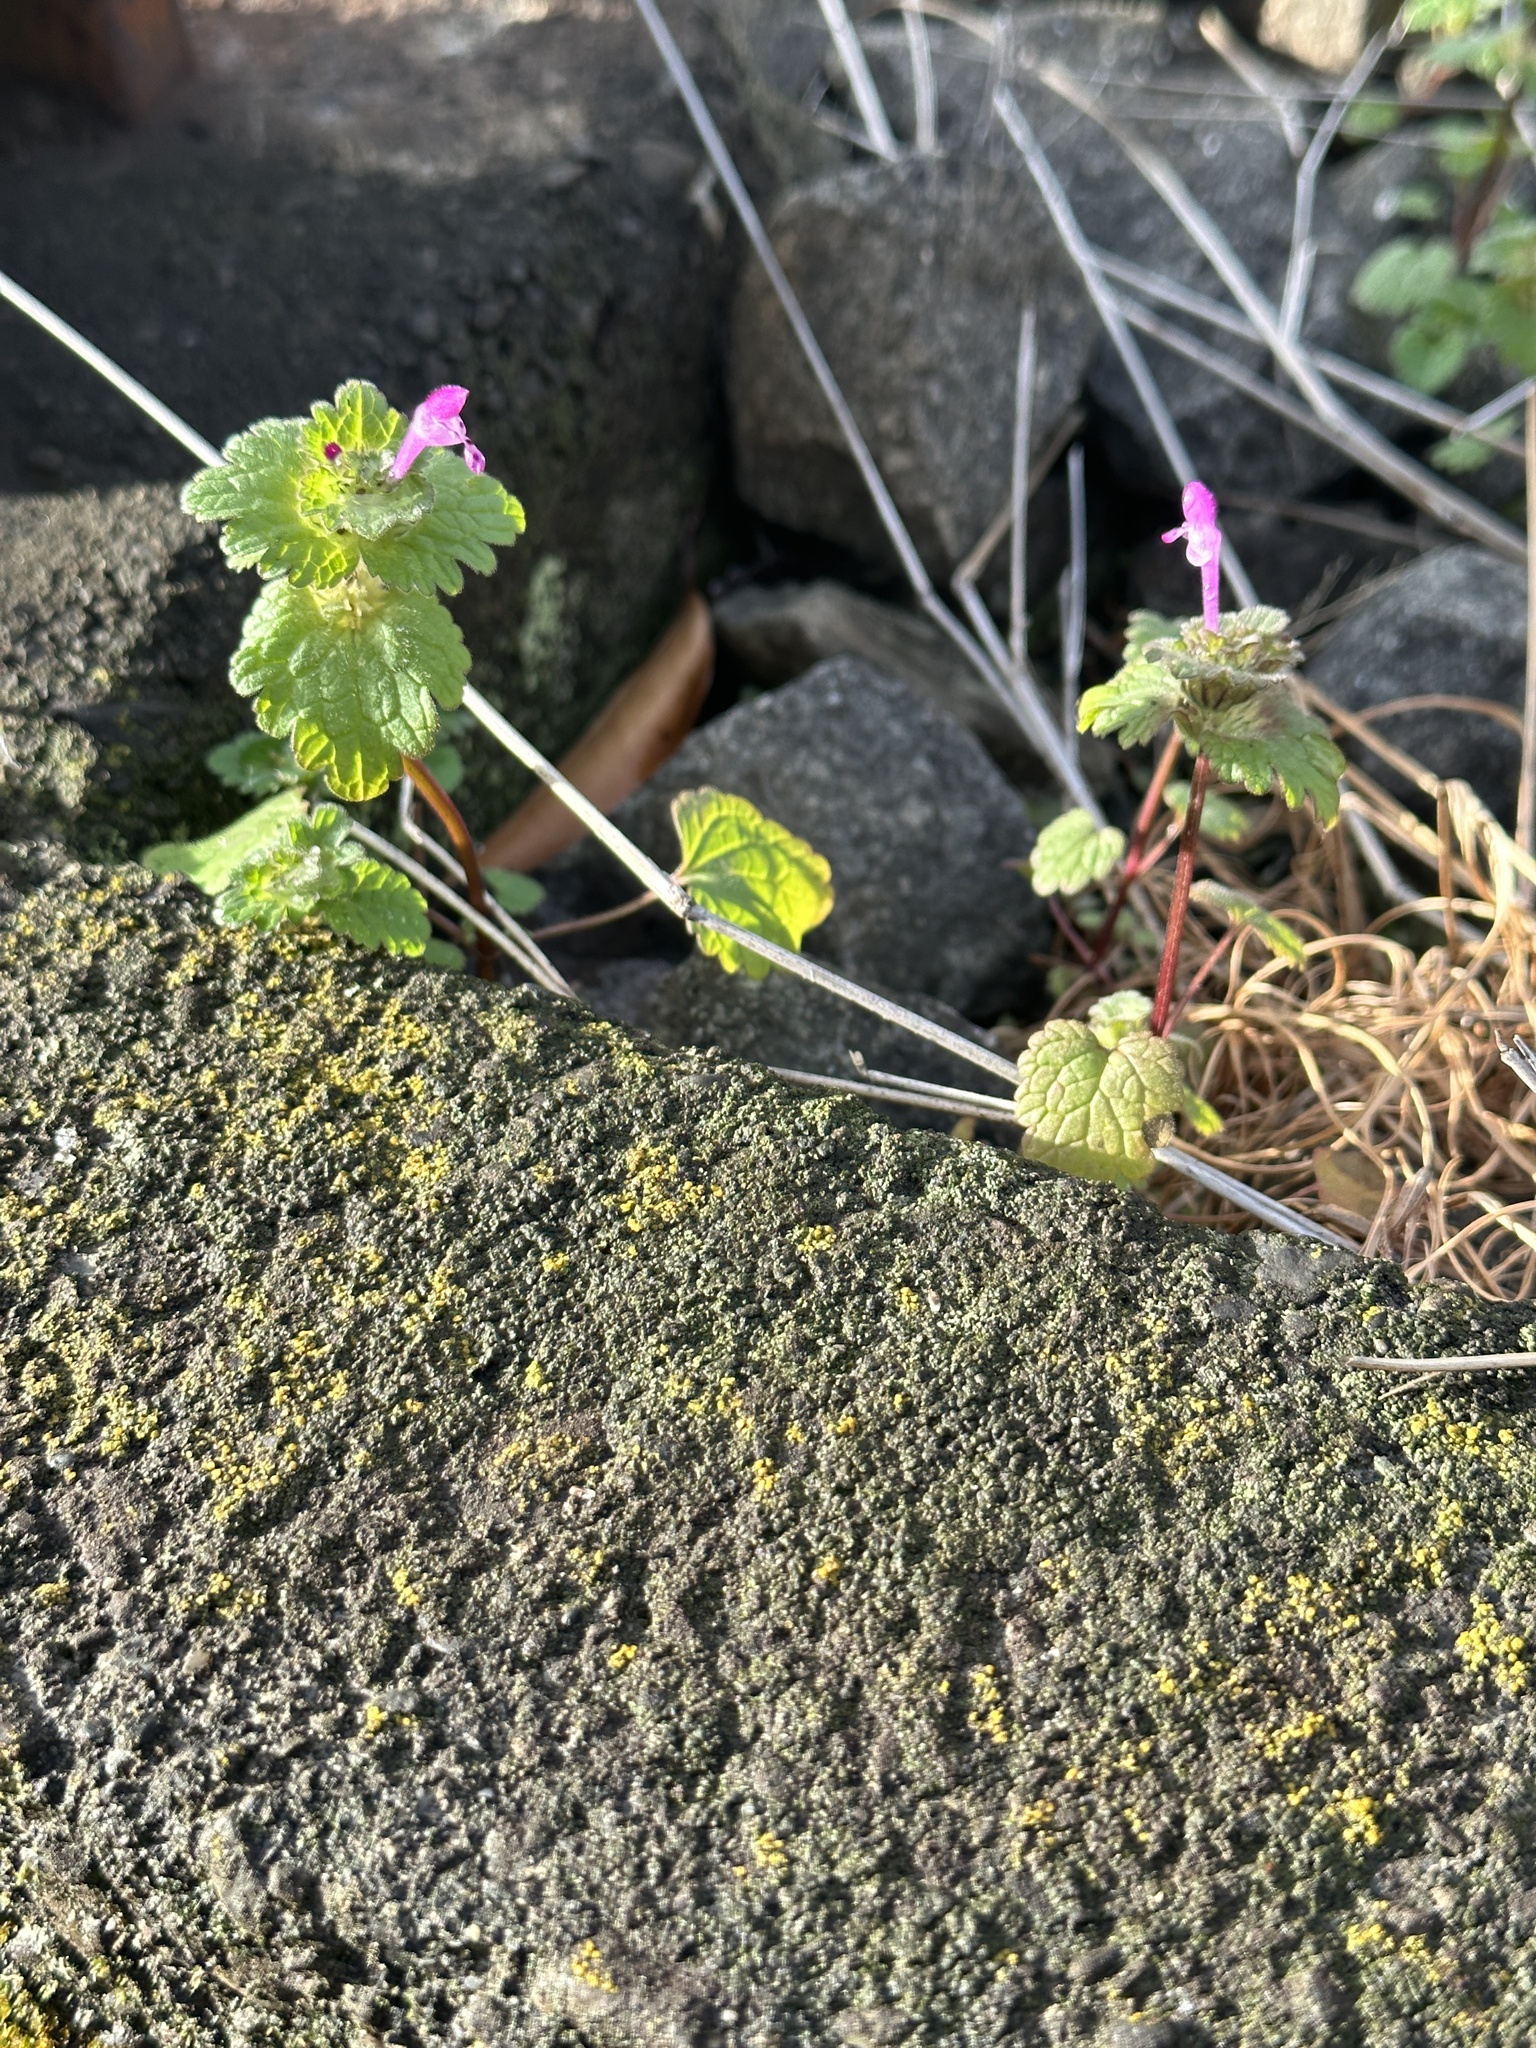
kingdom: Plantae
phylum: Tracheophyta
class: Magnoliopsida
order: Lamiales
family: Lamiaceae
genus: Lamium
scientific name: Lamium amplexicaule
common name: Henbit dead-nettle
